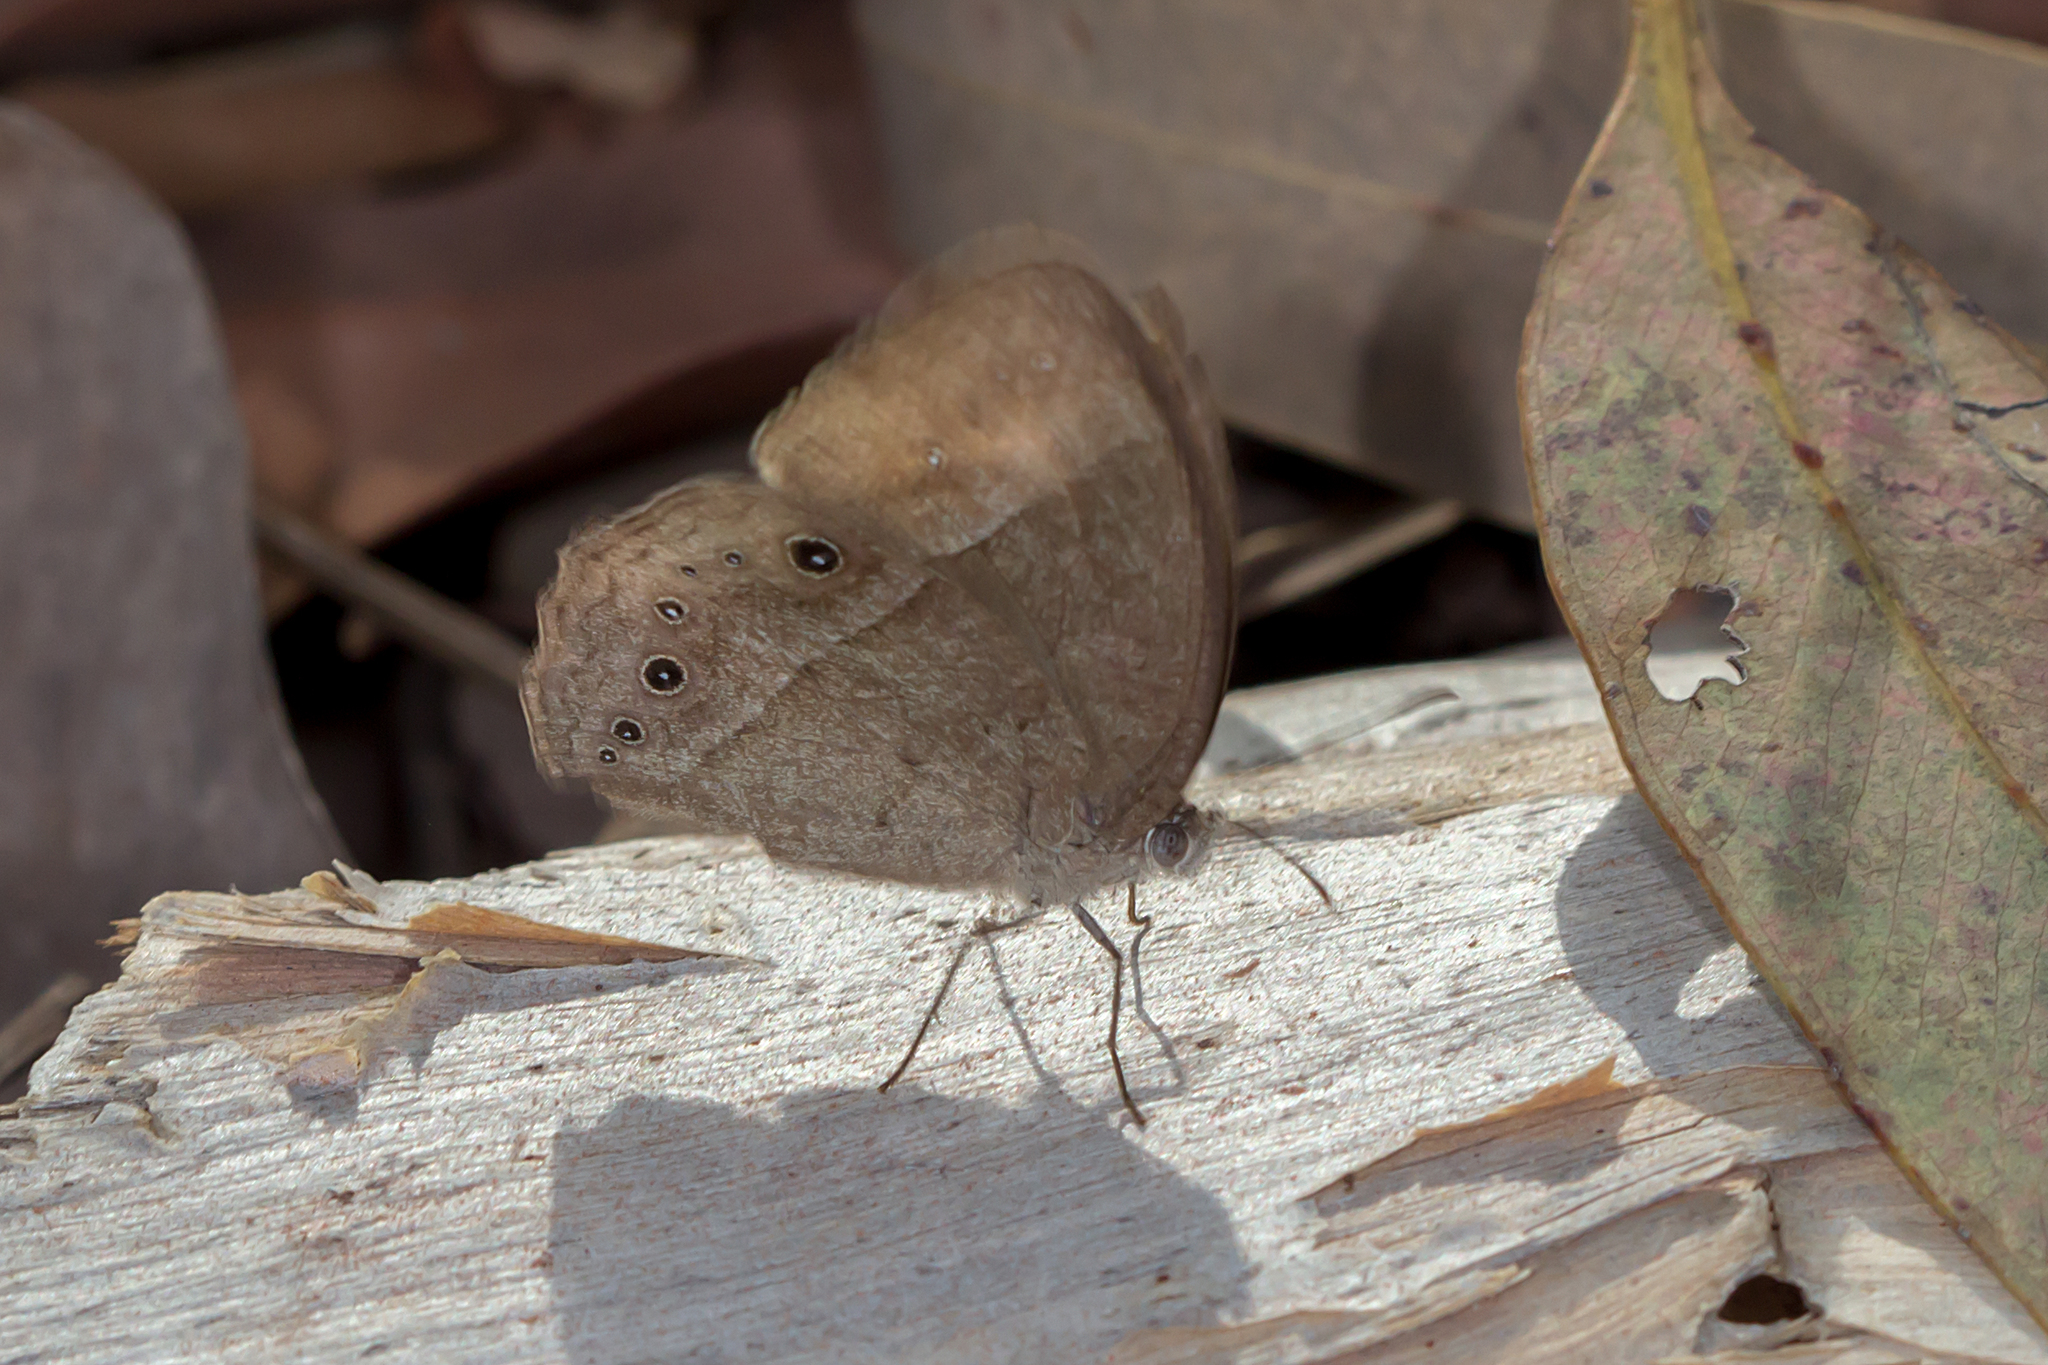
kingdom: Animalia
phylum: Arthropoda
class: Insecta
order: Lepidoptera
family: Nymphalidae
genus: Mycalesis
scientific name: Mycalesis perseus
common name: Dingy bushbrown
